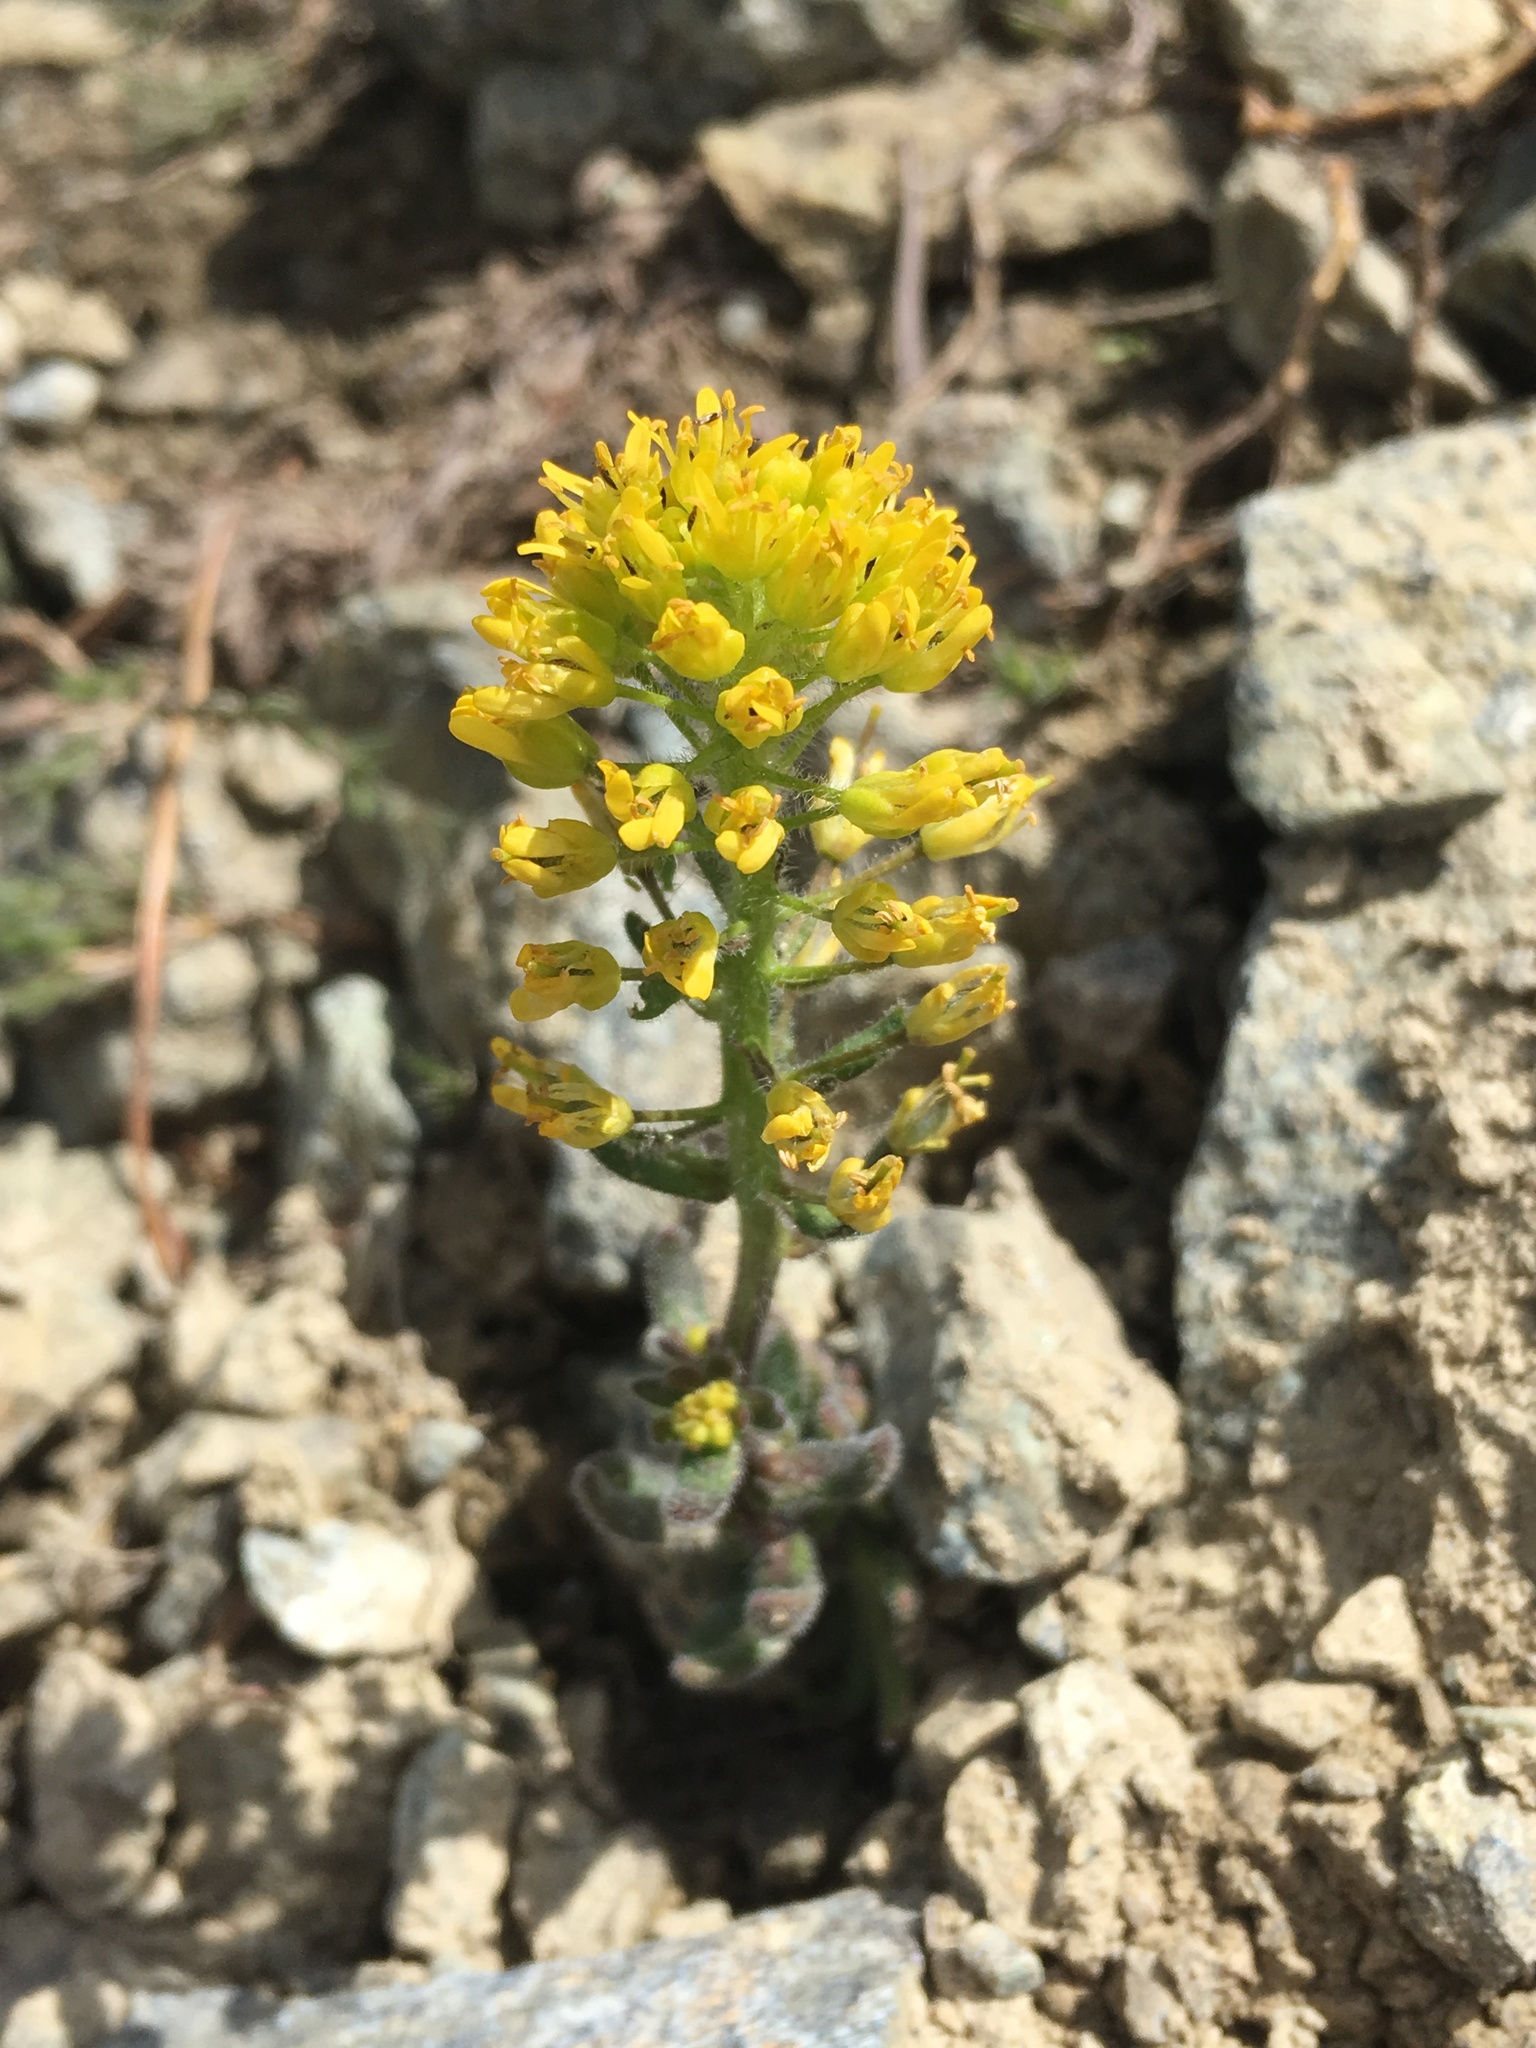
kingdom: Plantae
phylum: Tracheophyta
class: Magnoliopsida
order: Brassicales
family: Brassicaceae
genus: Draba
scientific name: Draba aureola
